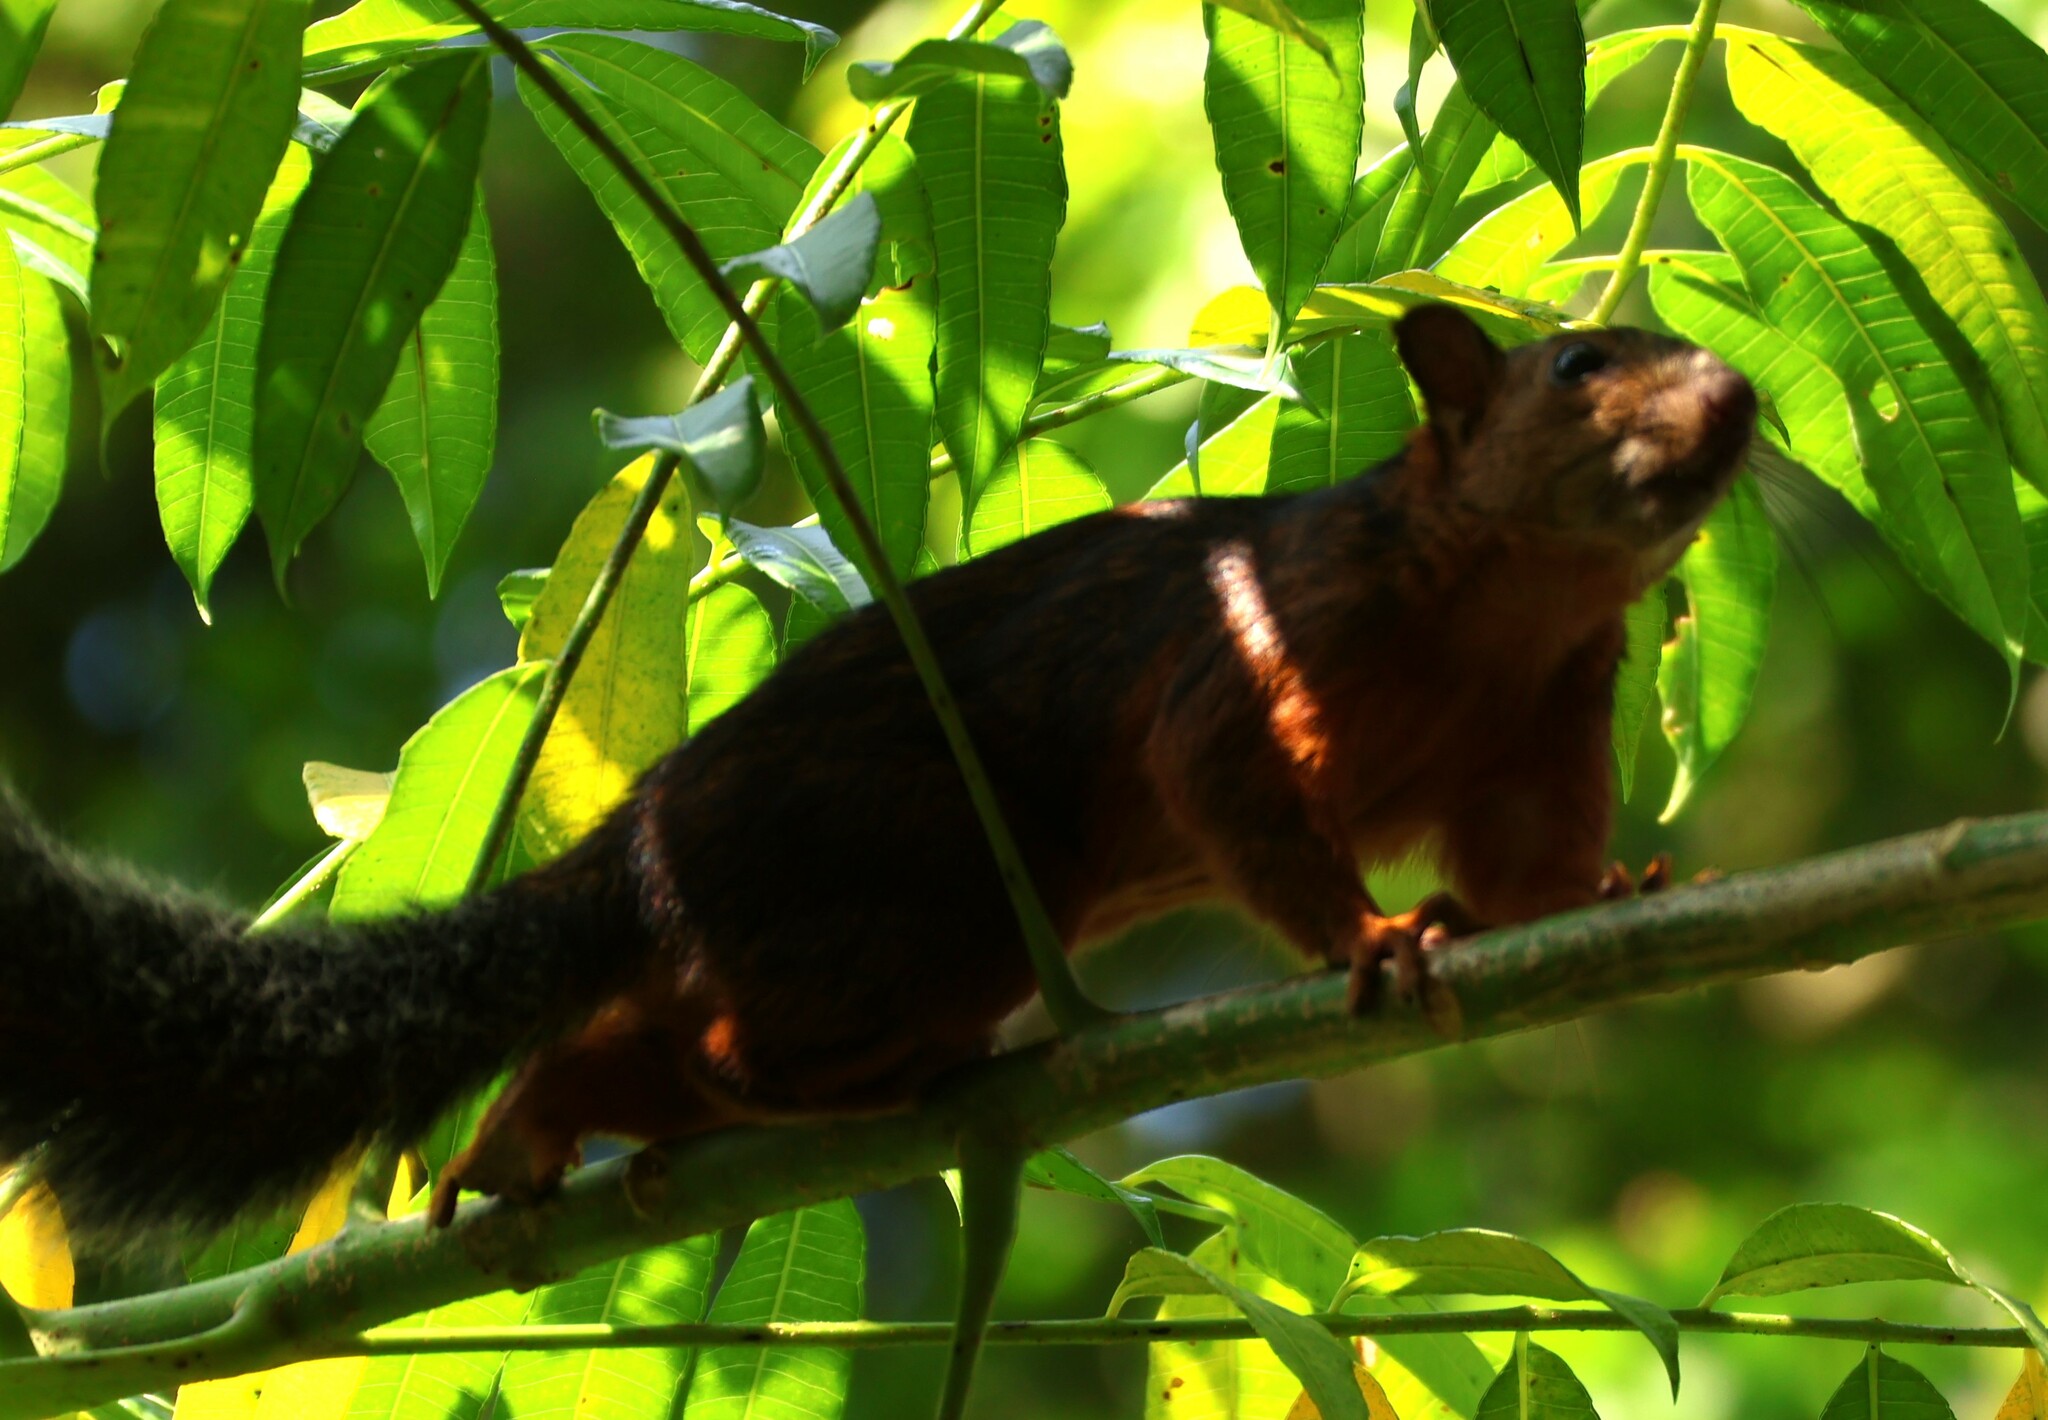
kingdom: Animalia
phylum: Chordata
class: Mammalia
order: Rodentia
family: Sciuridae
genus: Sciurus
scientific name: Sciurus variegatoides
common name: Variegated squirrel
